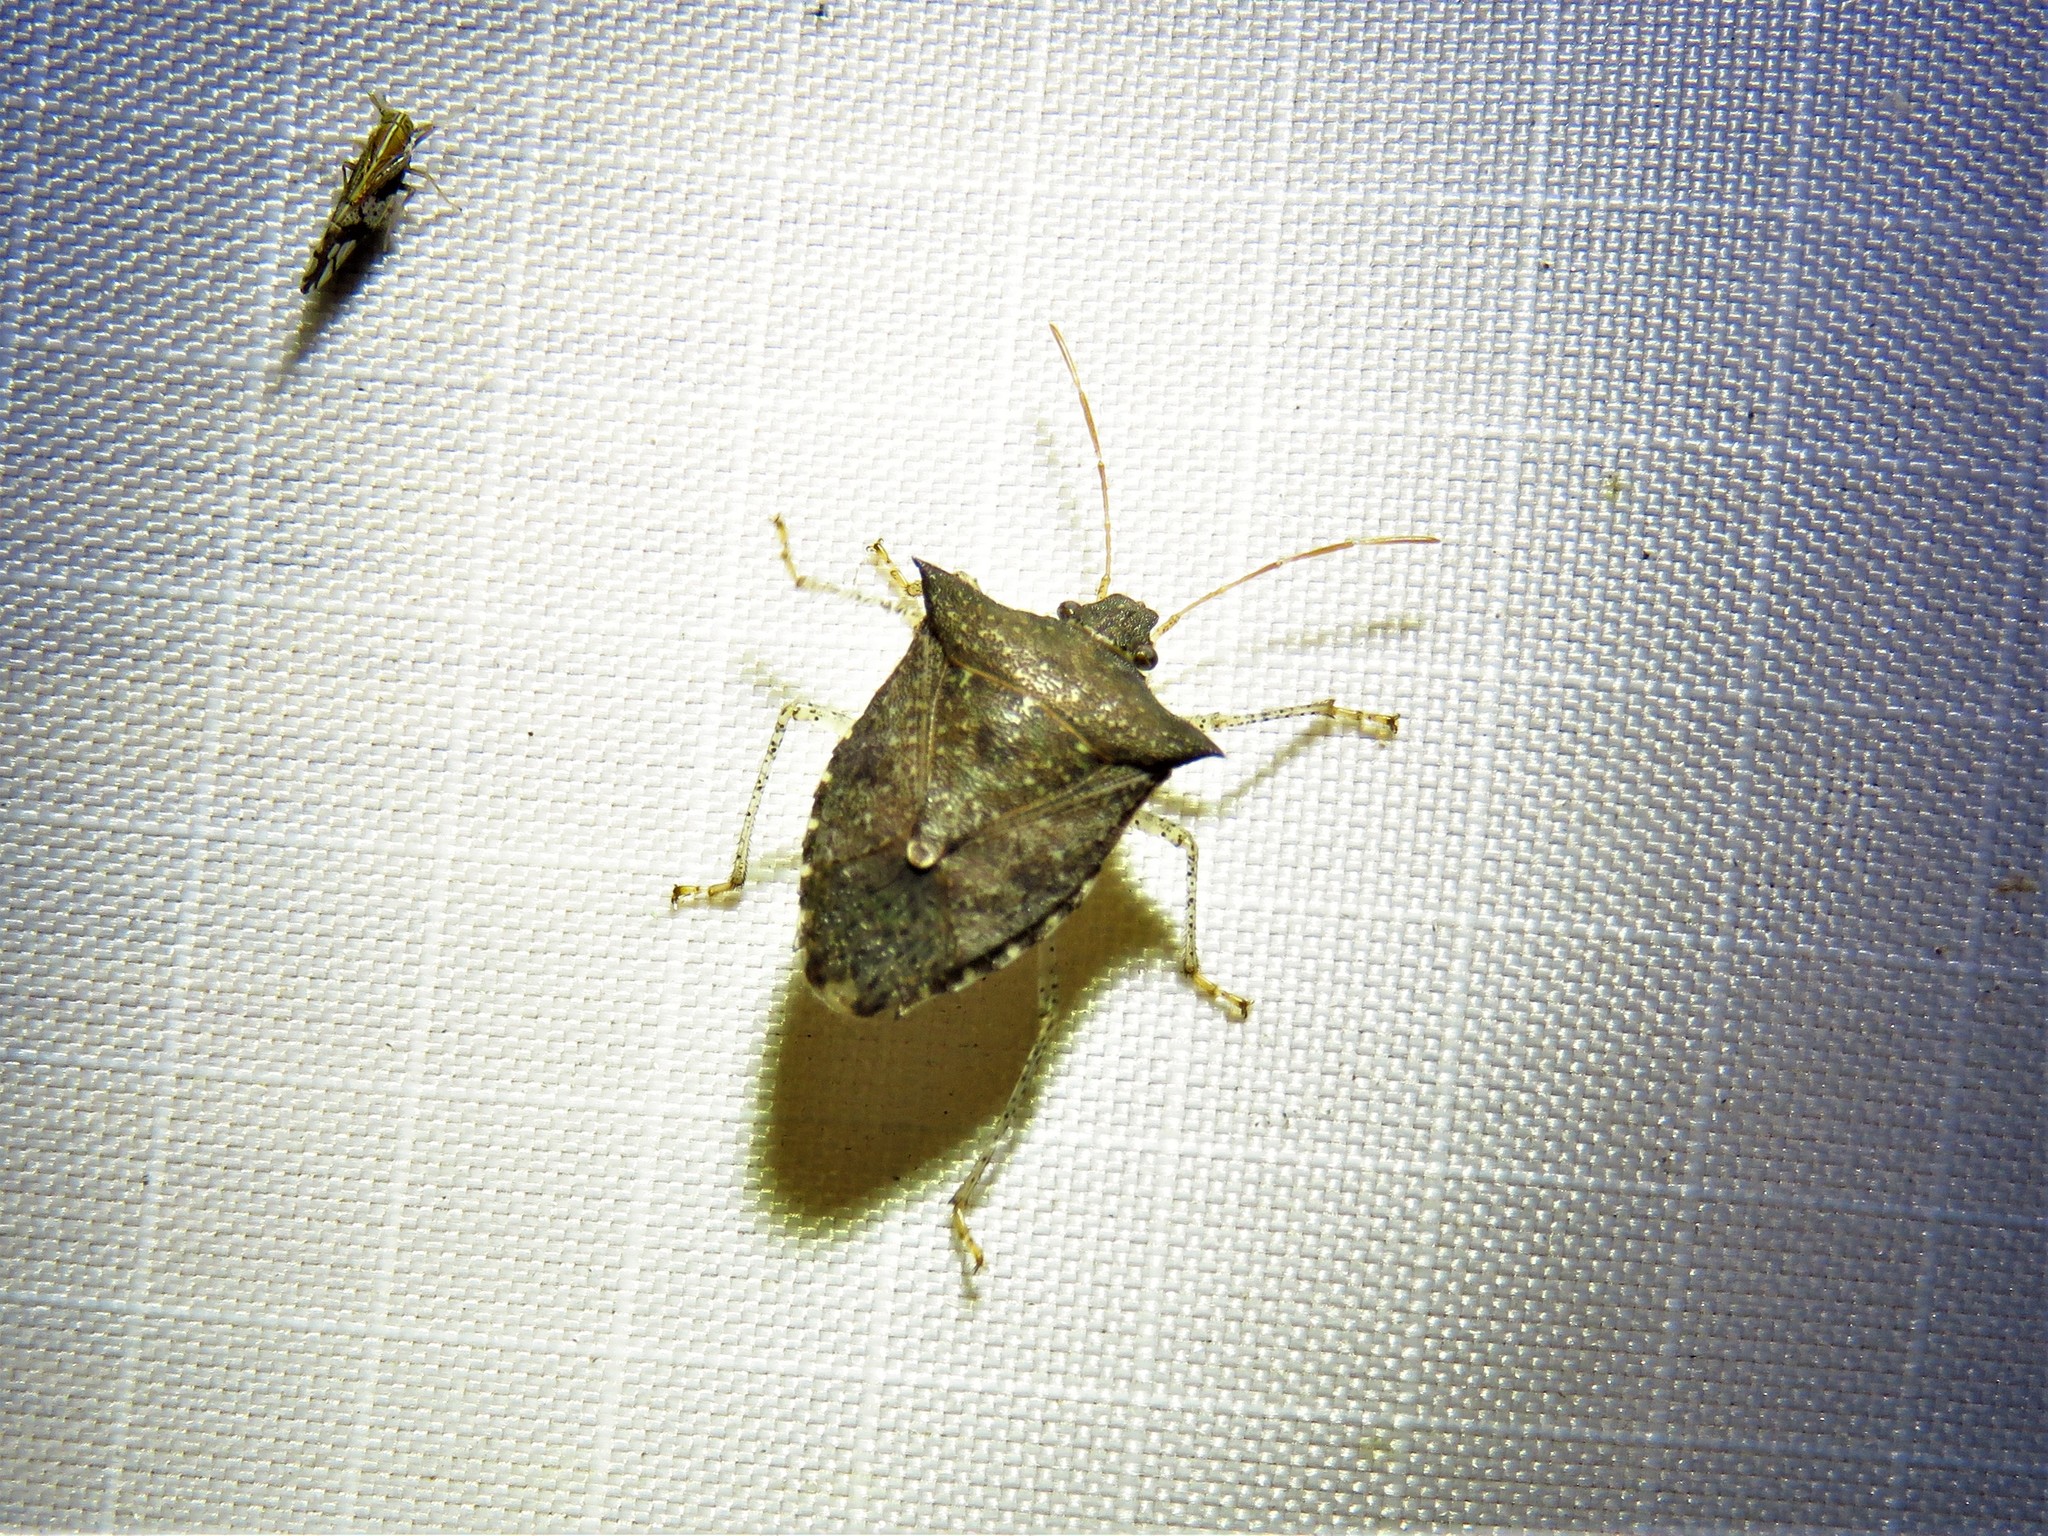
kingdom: Animalia
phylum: Arthropoda
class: Insecta
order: Hemiptera
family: Pentatomidae
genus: Euschistus
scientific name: Euschistus tristigmus
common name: Dusky stink bug
